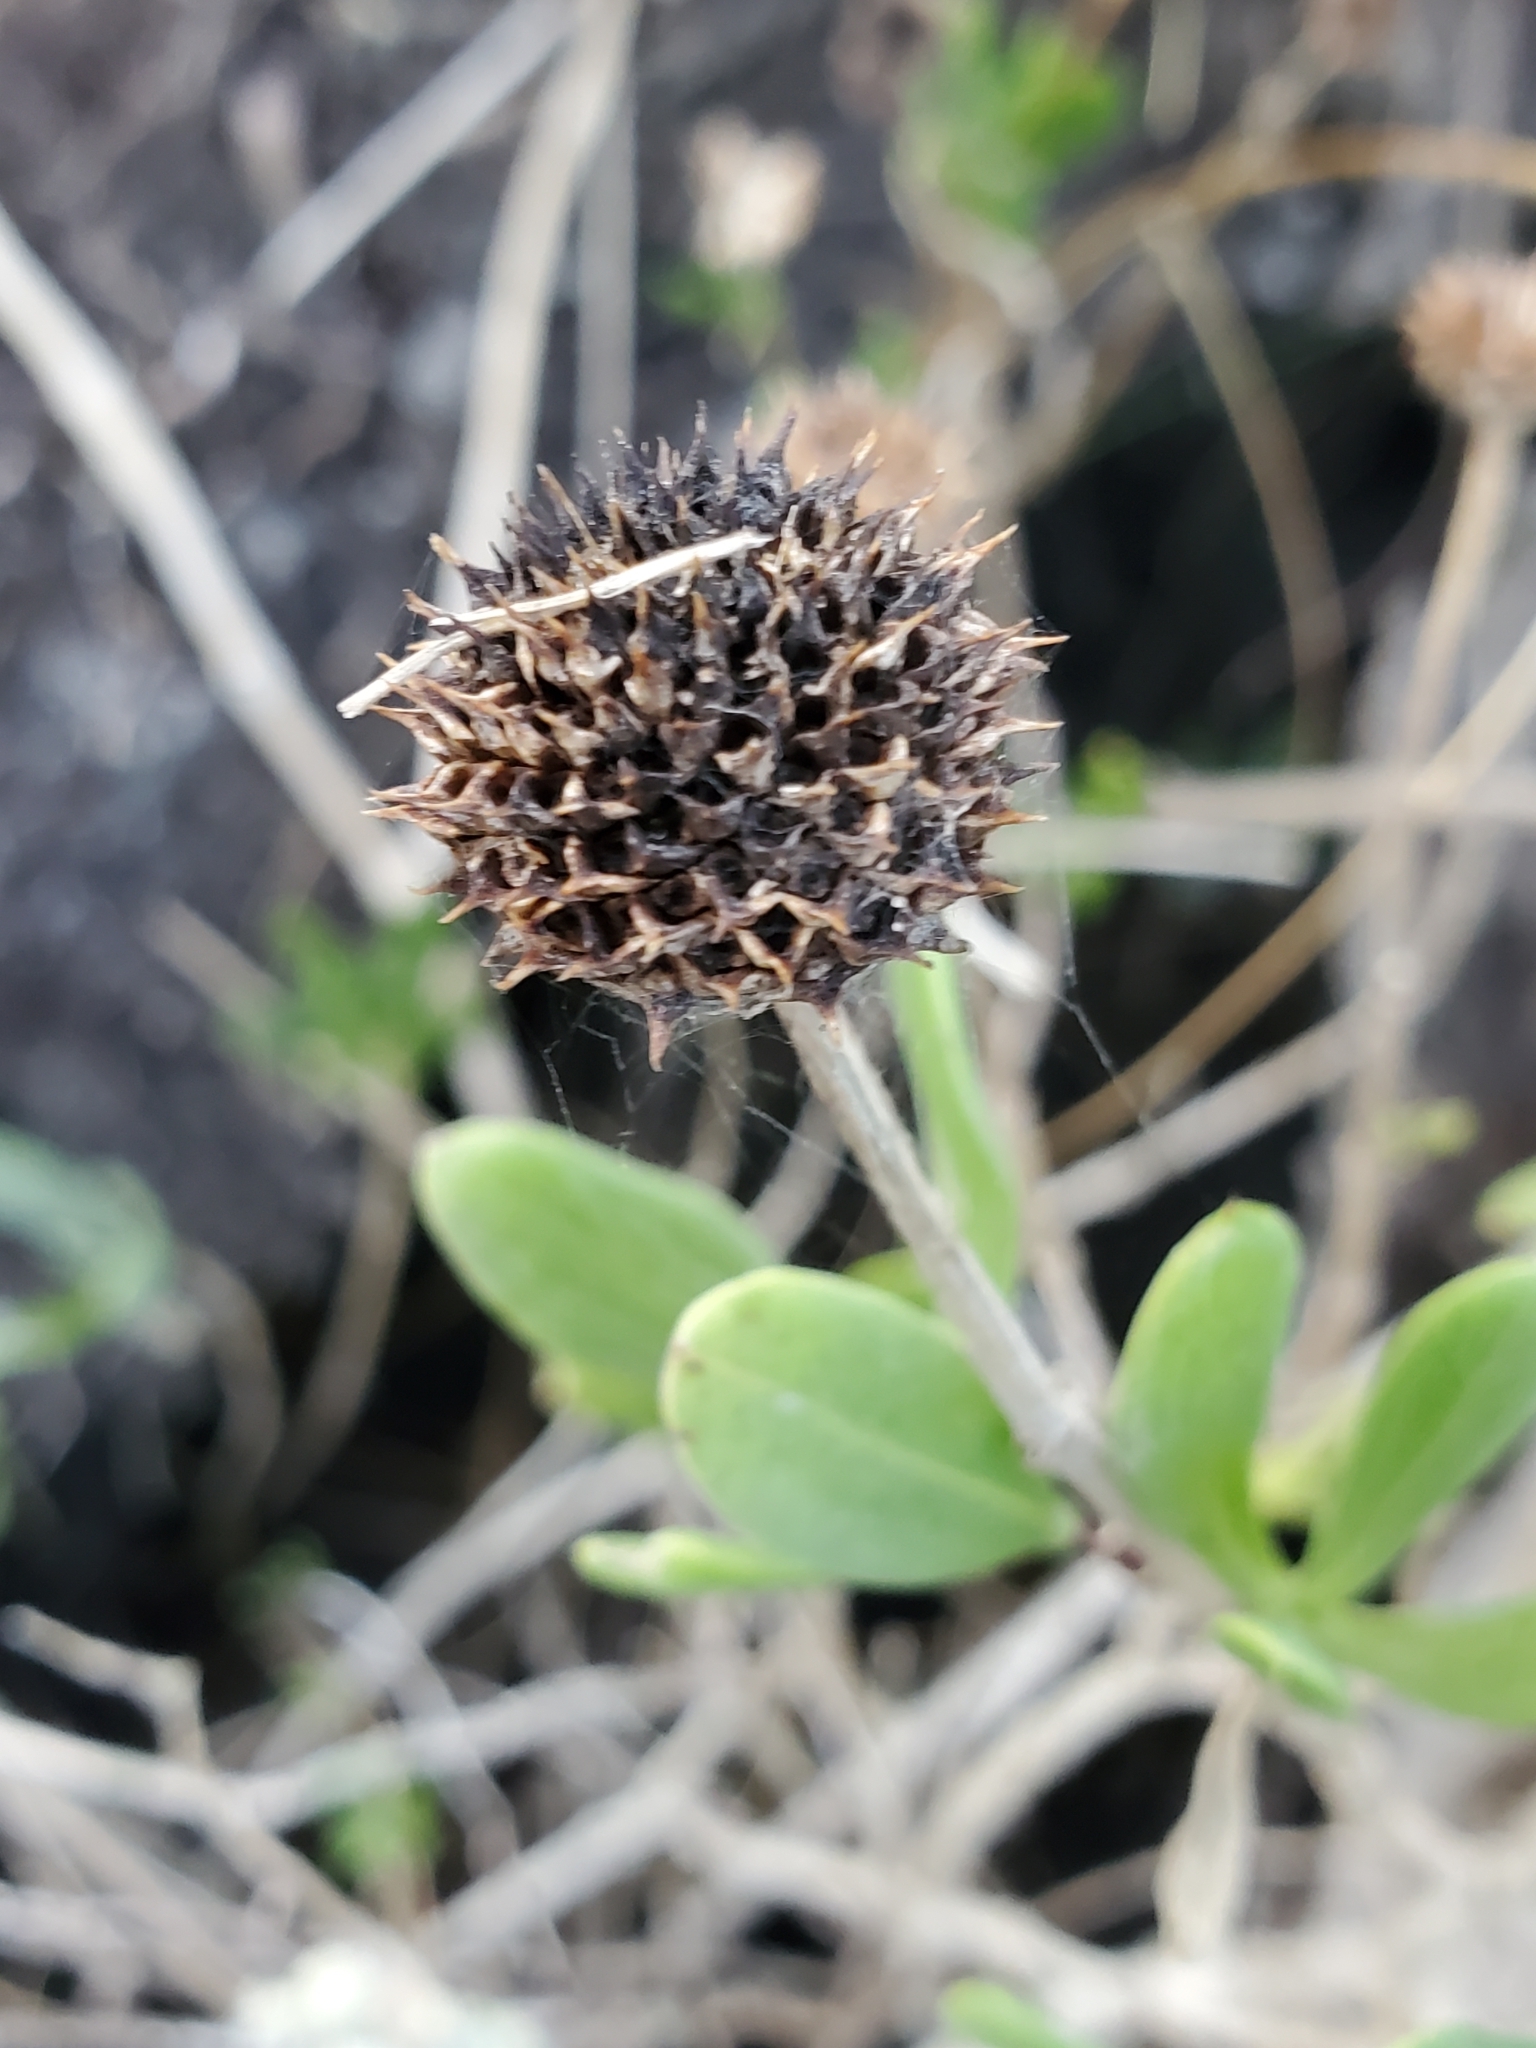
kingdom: Plantae
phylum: Tracheophyta
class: Magnoliopsida
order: Asterales
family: Asteraceae
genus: Borrichia
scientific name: Borrichia frutescens
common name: Sea oxeye
